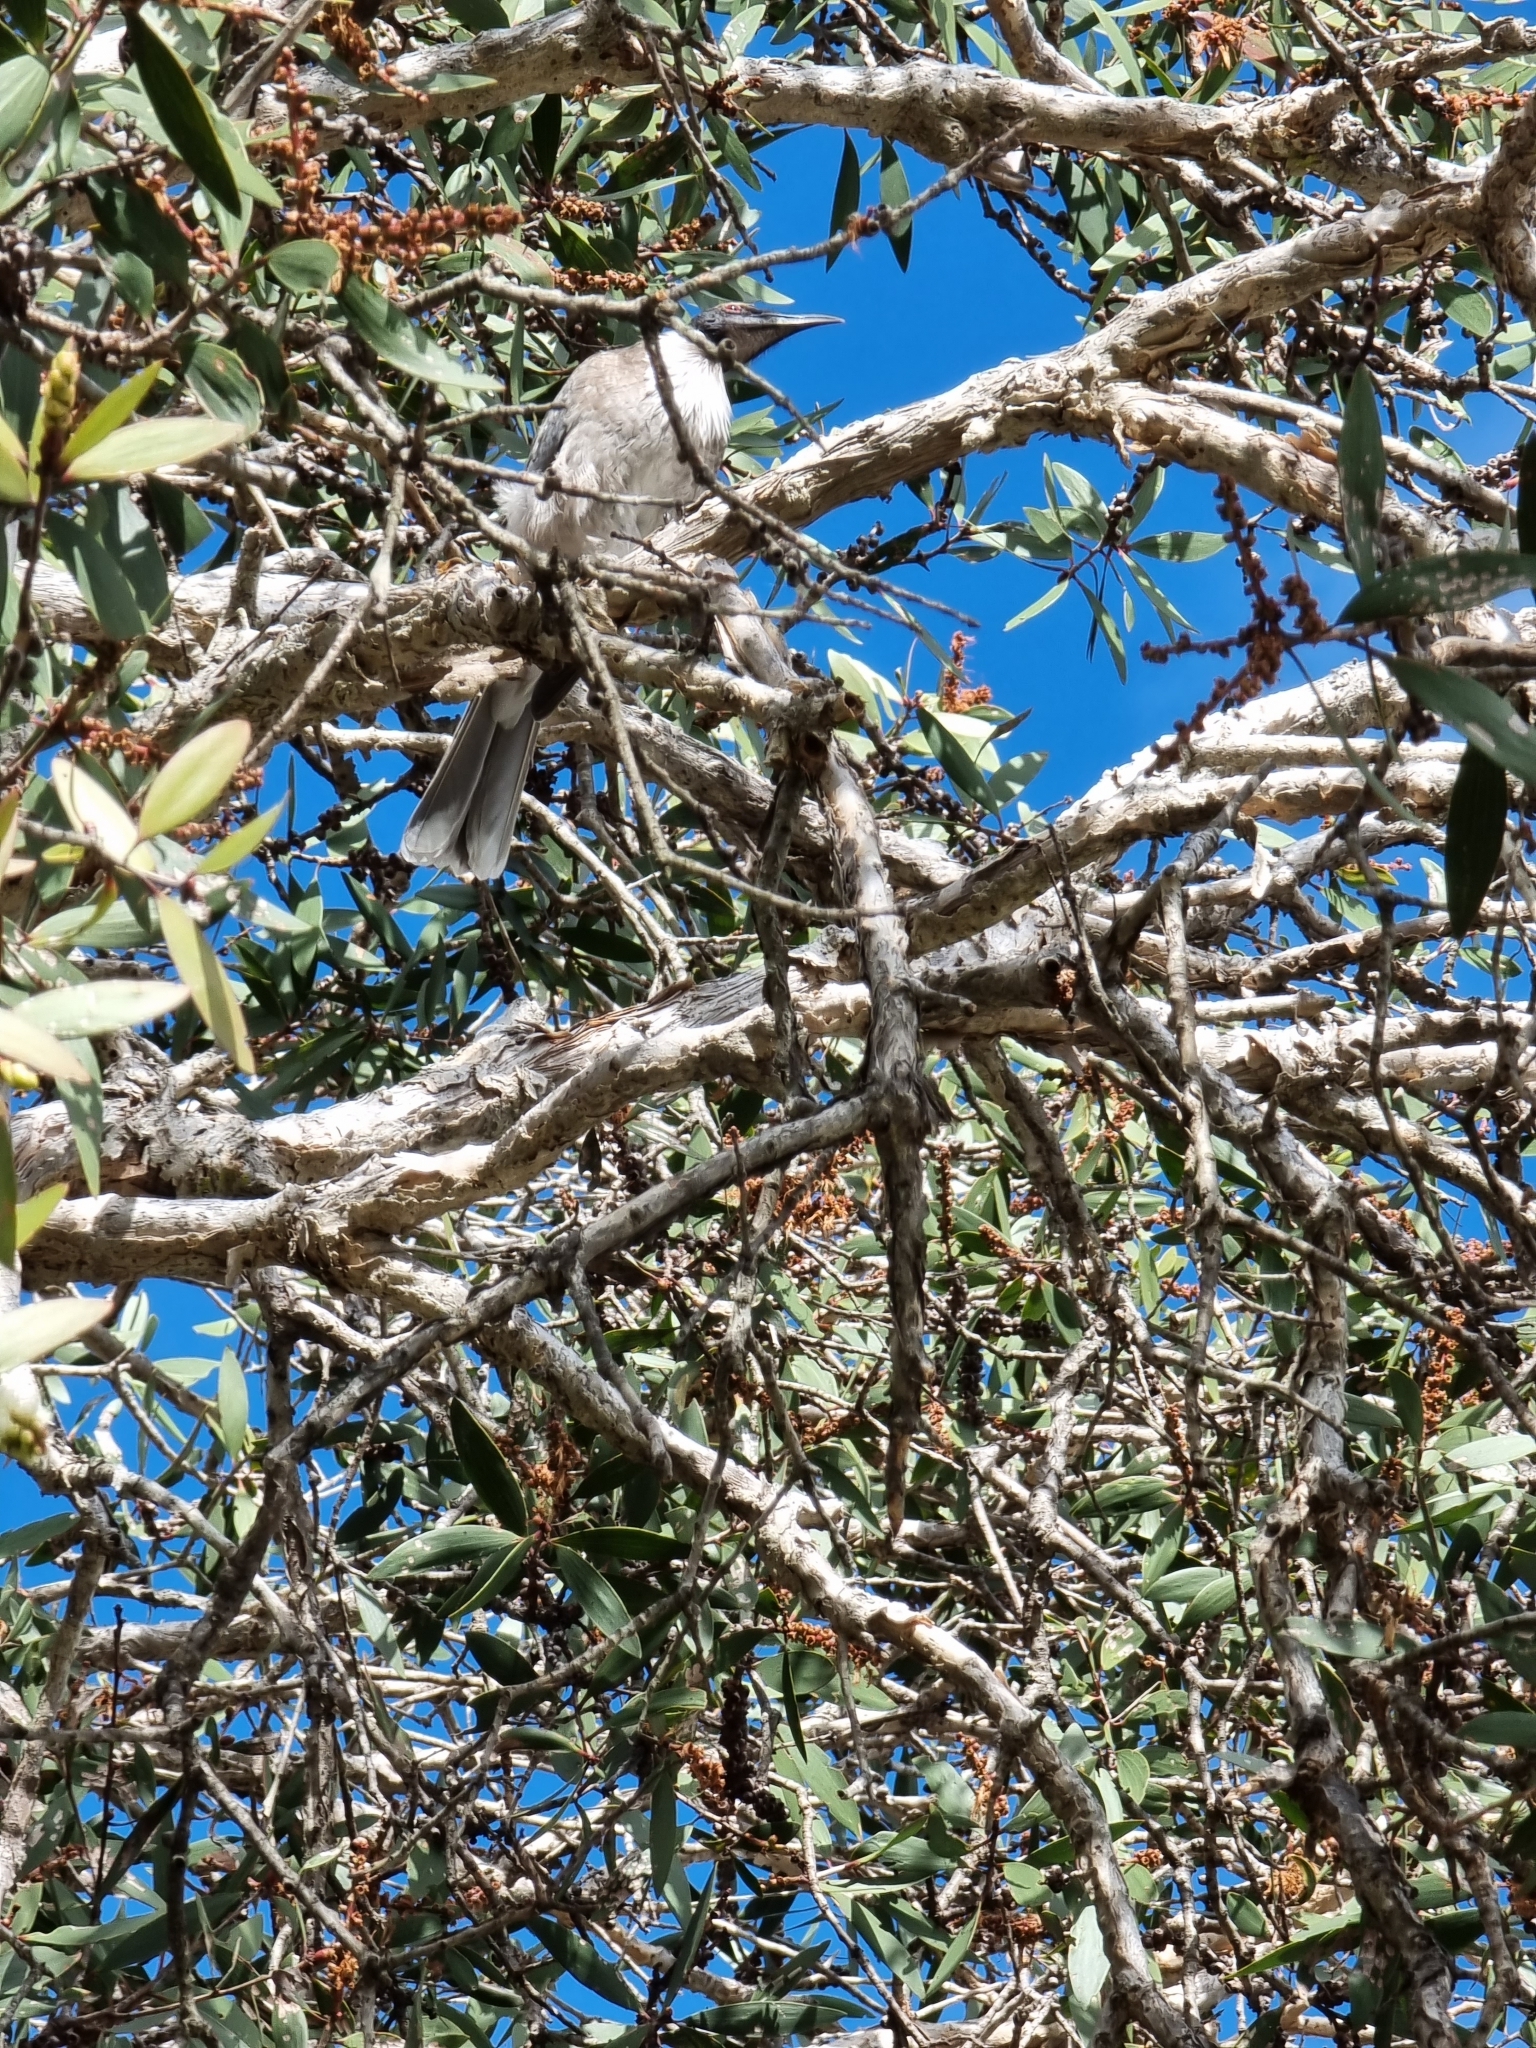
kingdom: Animalia
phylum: Chordata
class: Aves
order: Passeriformes
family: Meliphagidae
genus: Philemon
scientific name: Philemon corniculatus
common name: Noisy friarbird
